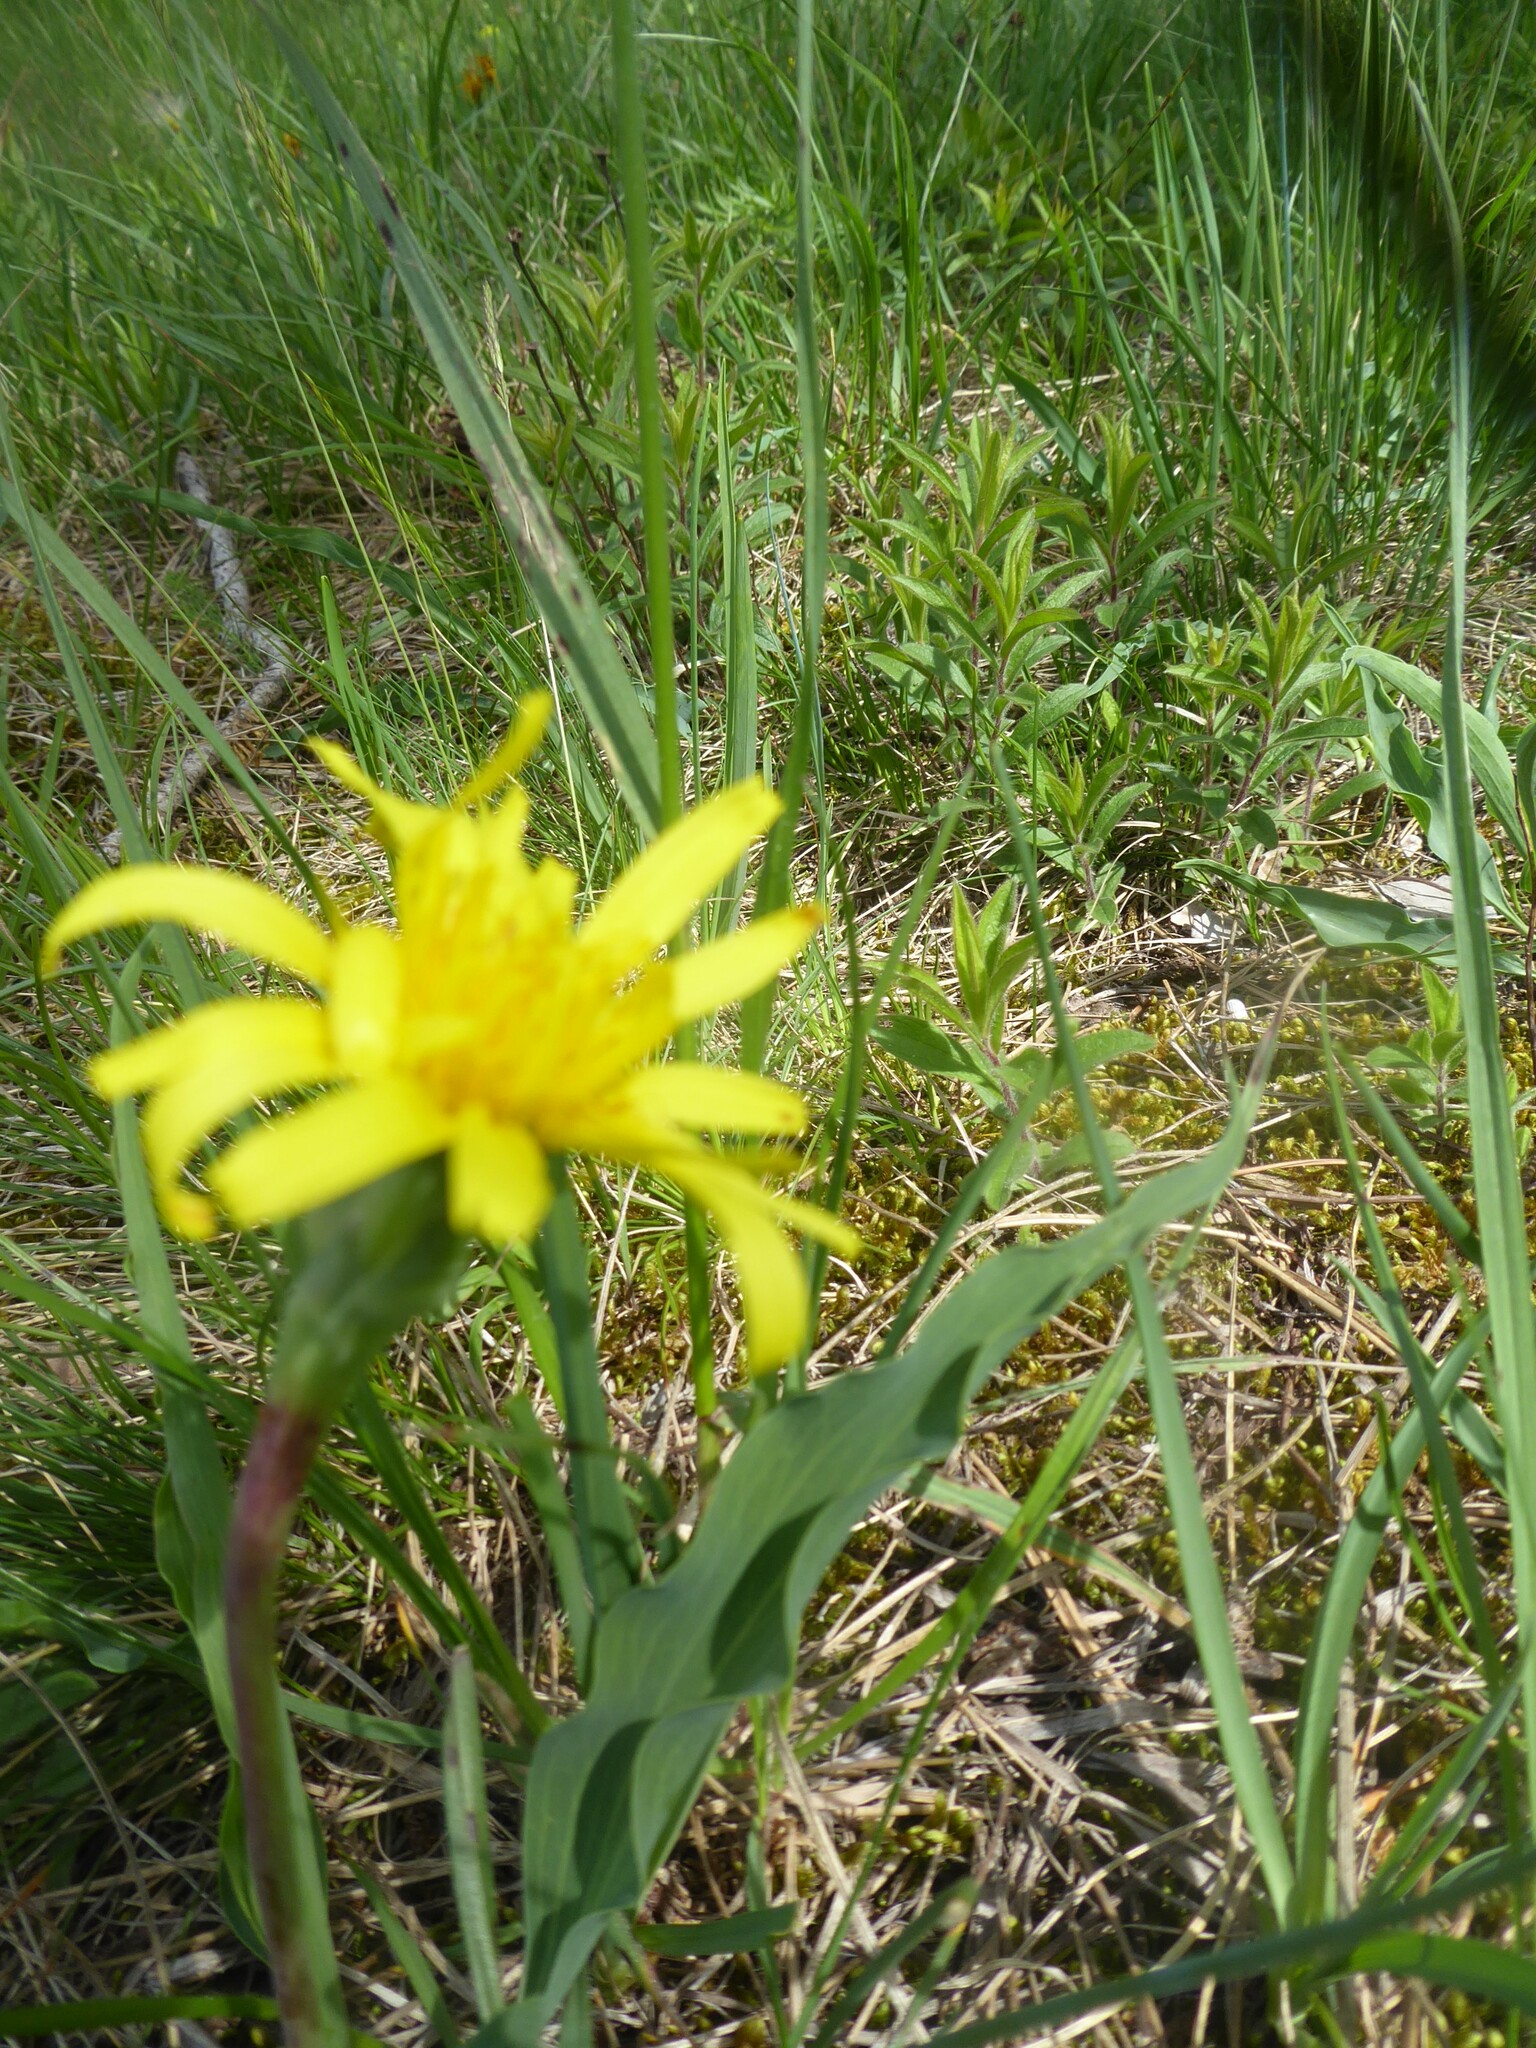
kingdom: Plantae
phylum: Tracheophyta
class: Magnoliopsida
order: Asterales
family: Asteraceae
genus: Takhtajaniantha
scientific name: Takhtajaniantha austriaca
